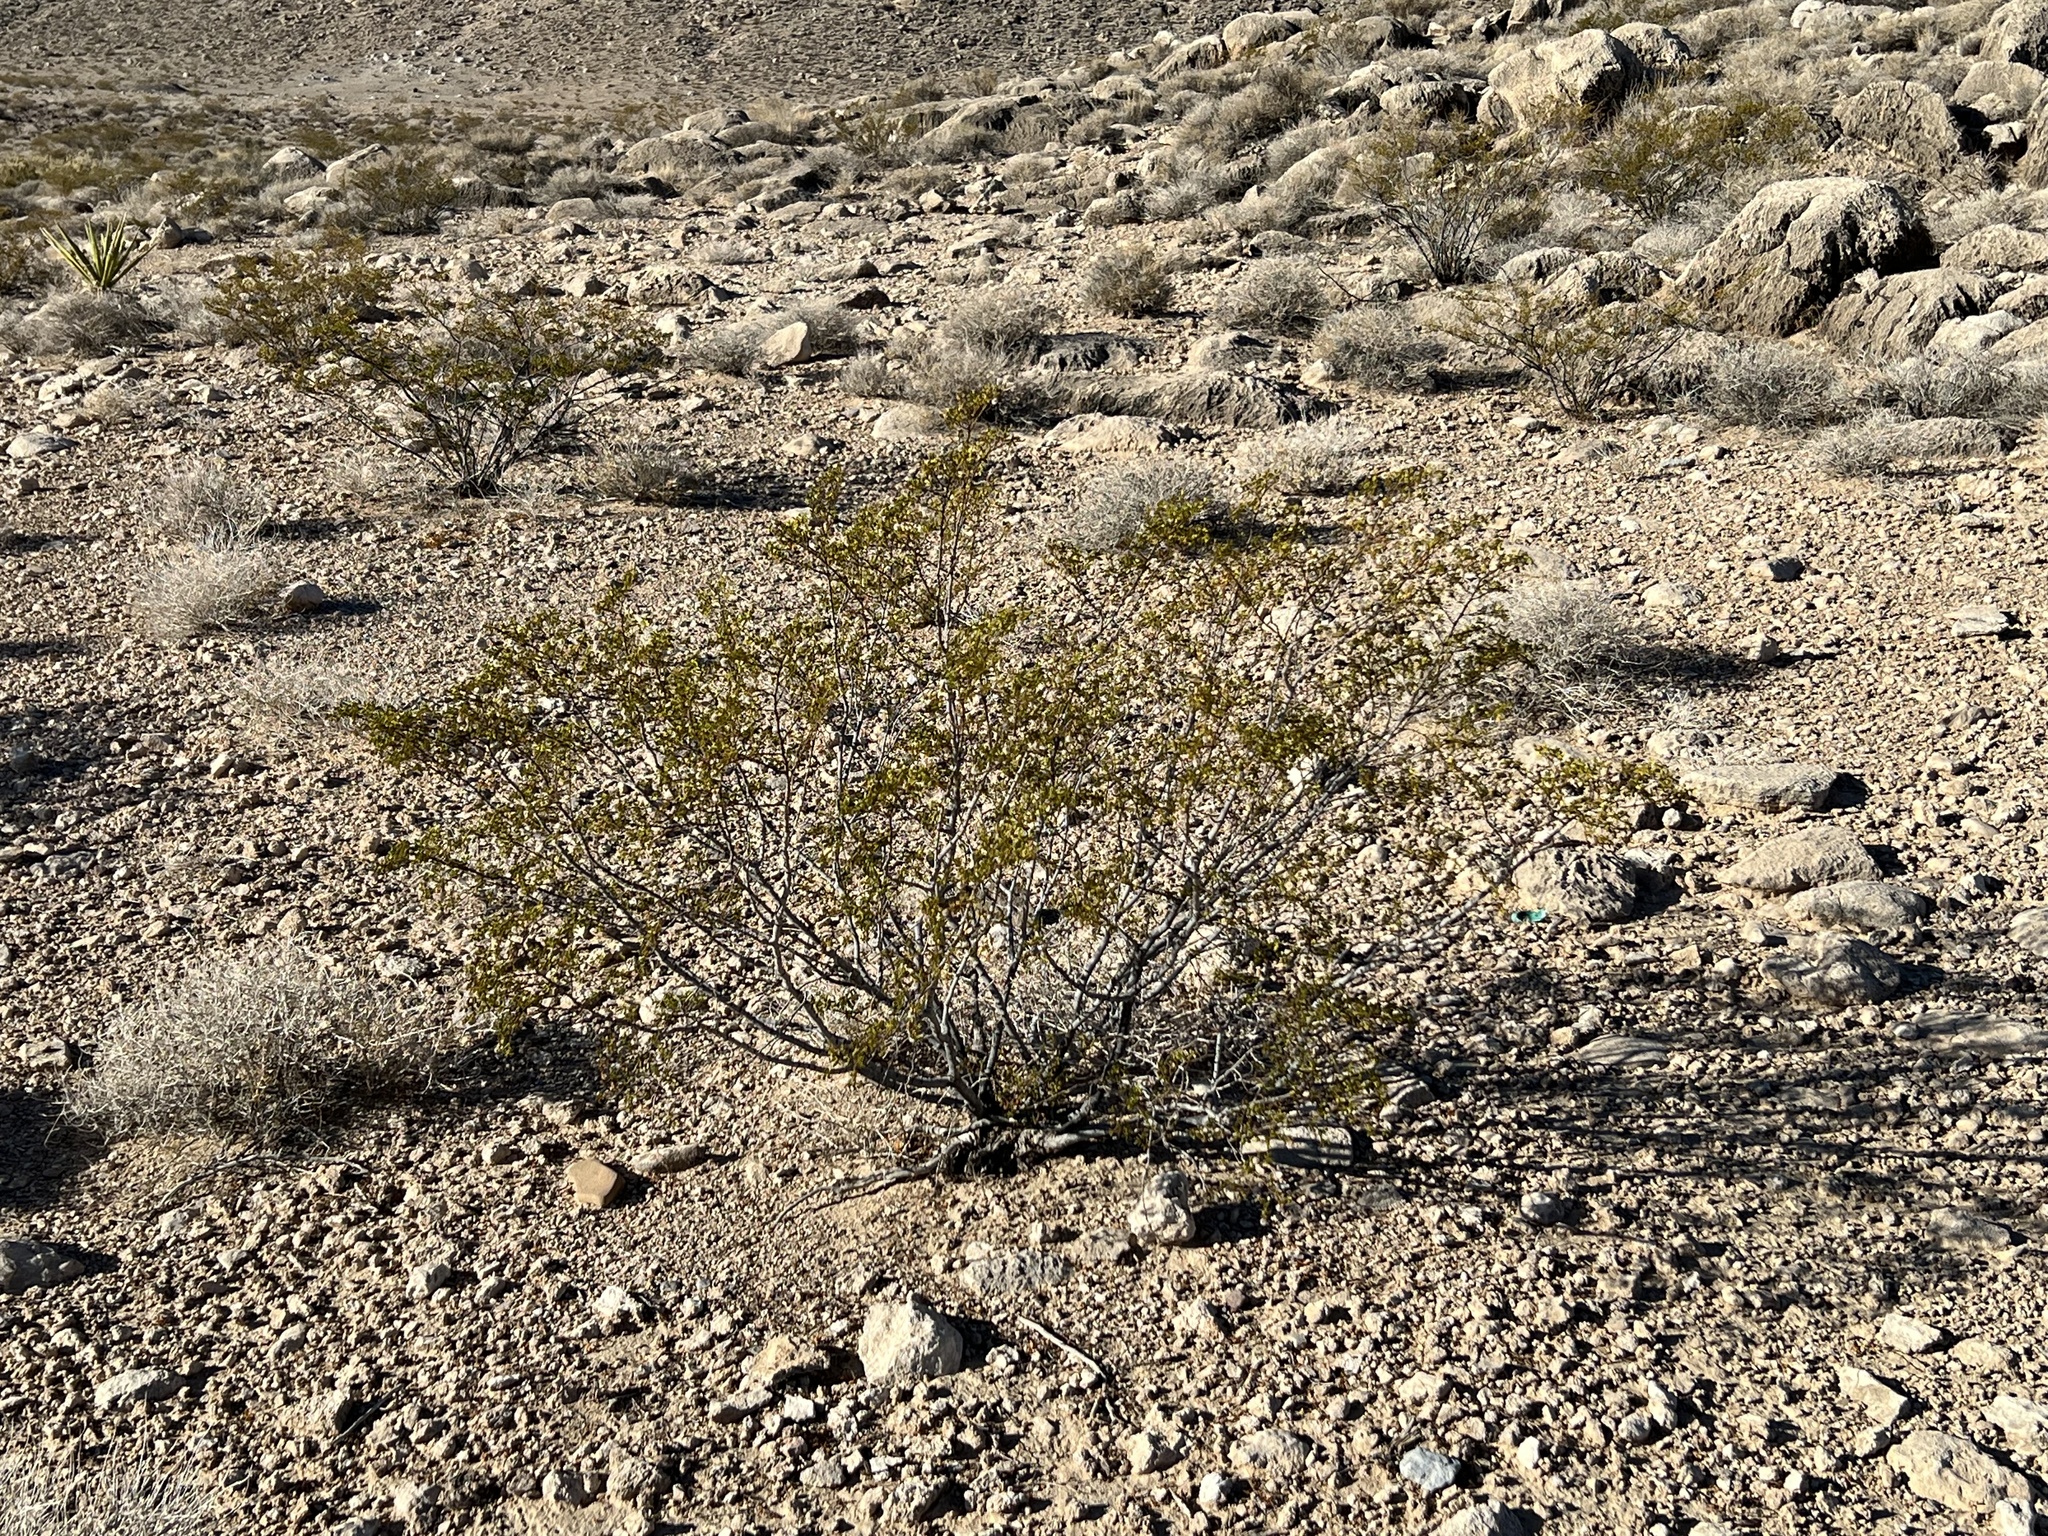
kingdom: Plantae
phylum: Tracheophyta
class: Magnoliopsida
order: Zygophyllales
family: Zygophyllaceae
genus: Larrea
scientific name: Larrea tridentata
